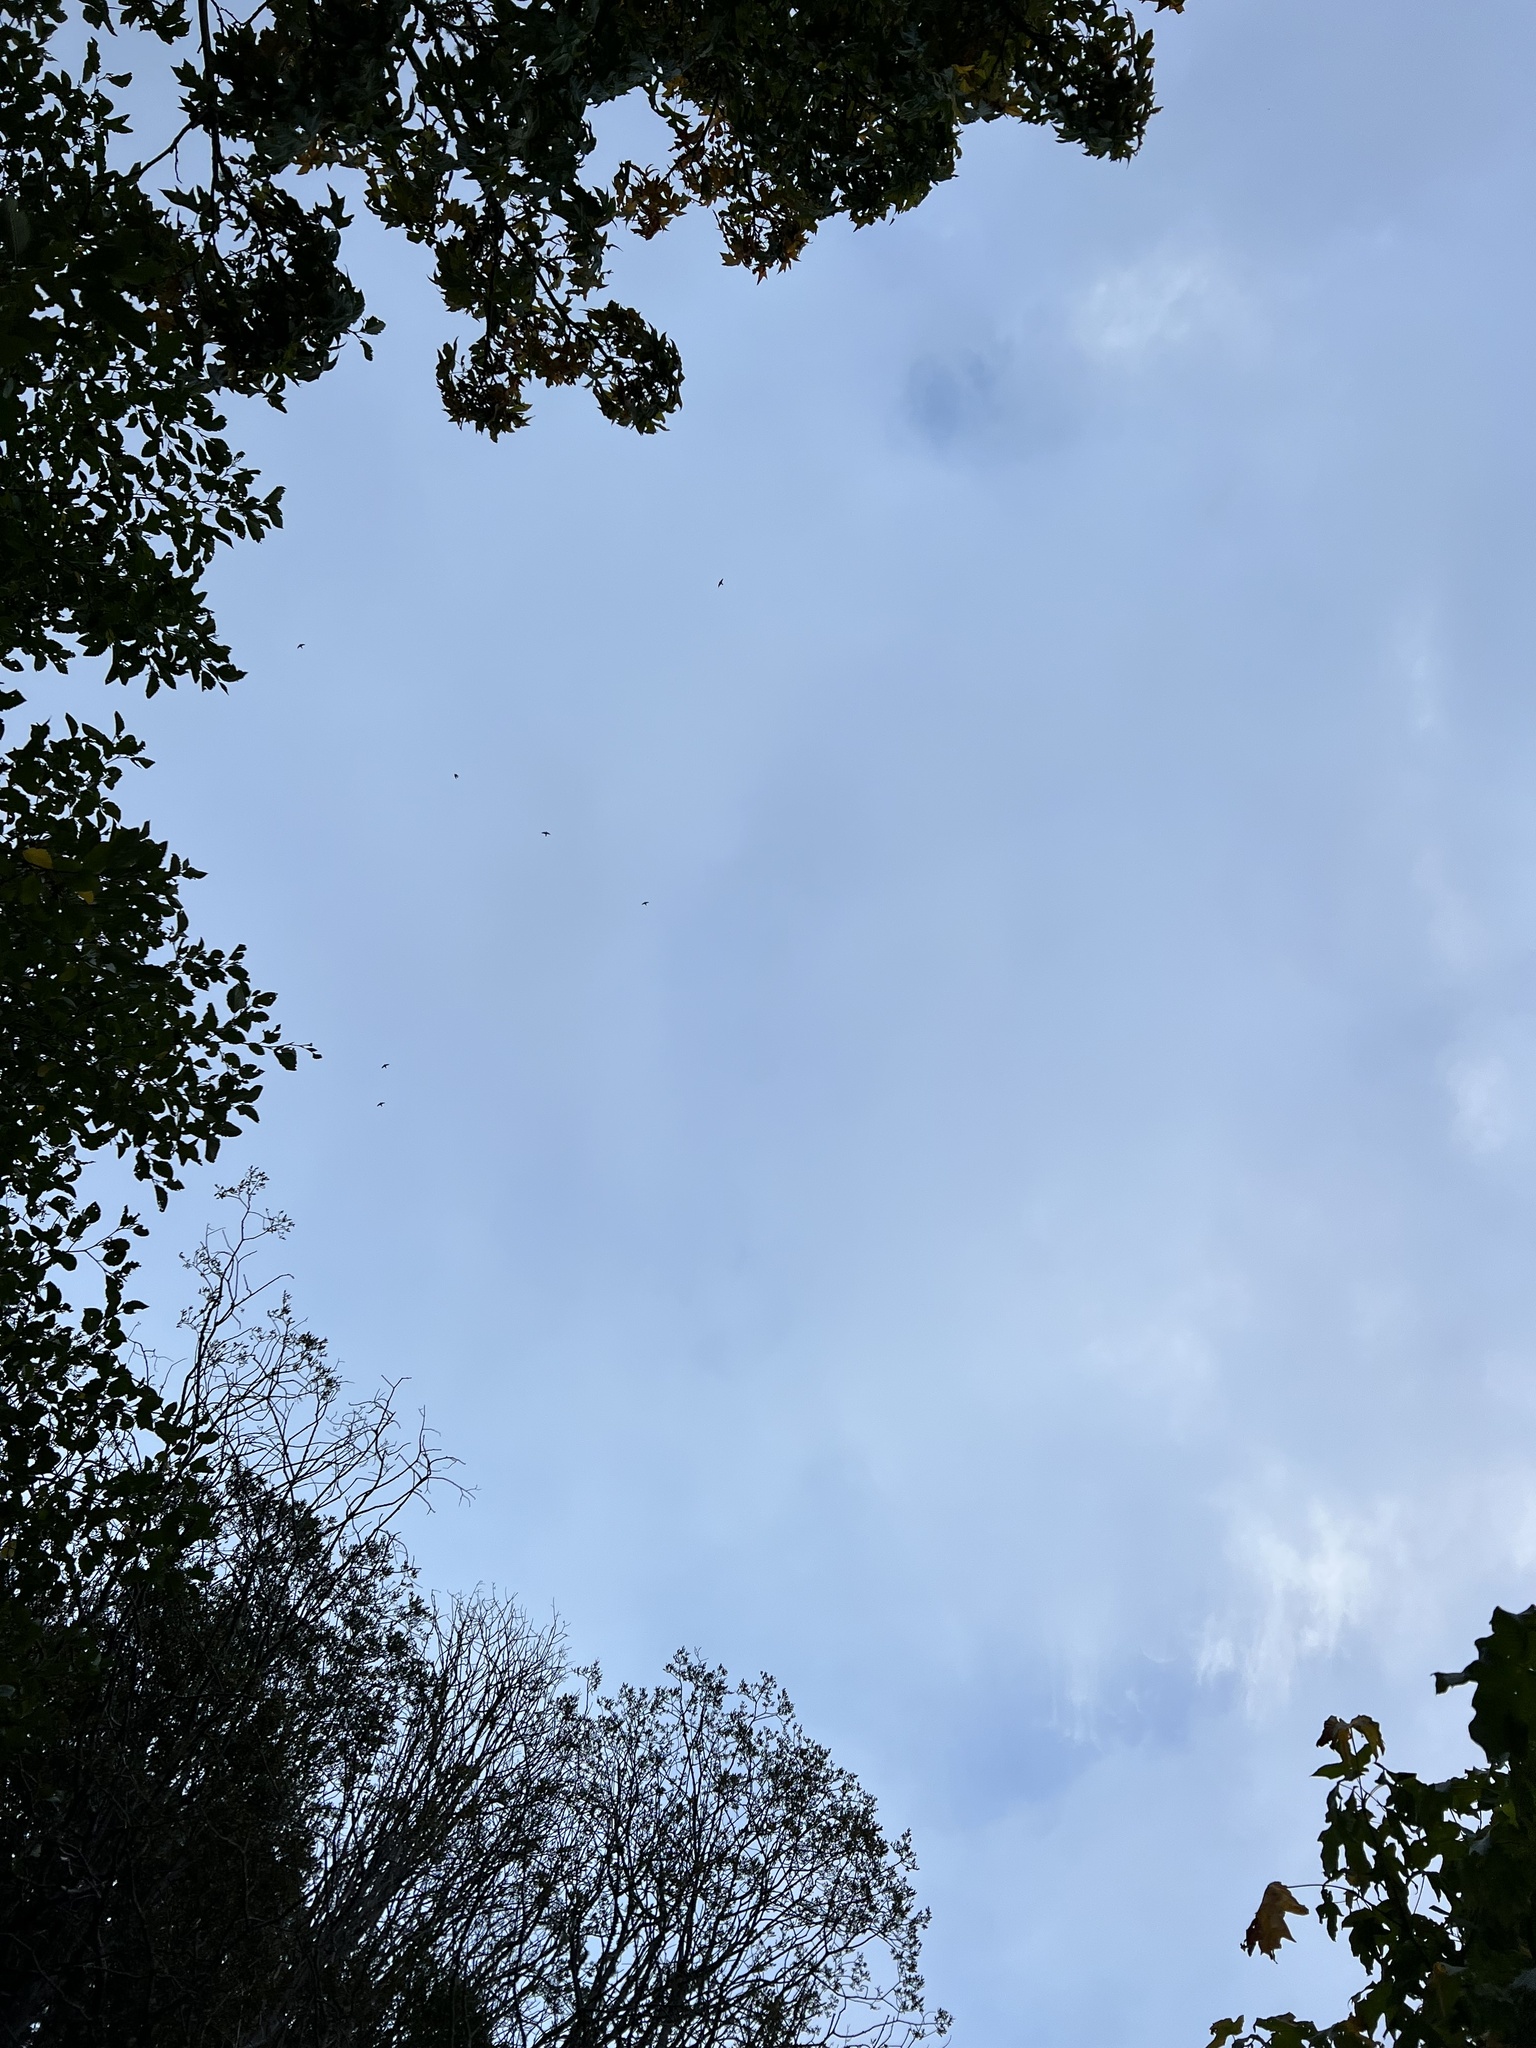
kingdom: Animalia
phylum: Chordata
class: Aves
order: Passeriformes
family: Hirundinidae
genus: Progne
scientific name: Progne subis
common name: Purple martin
